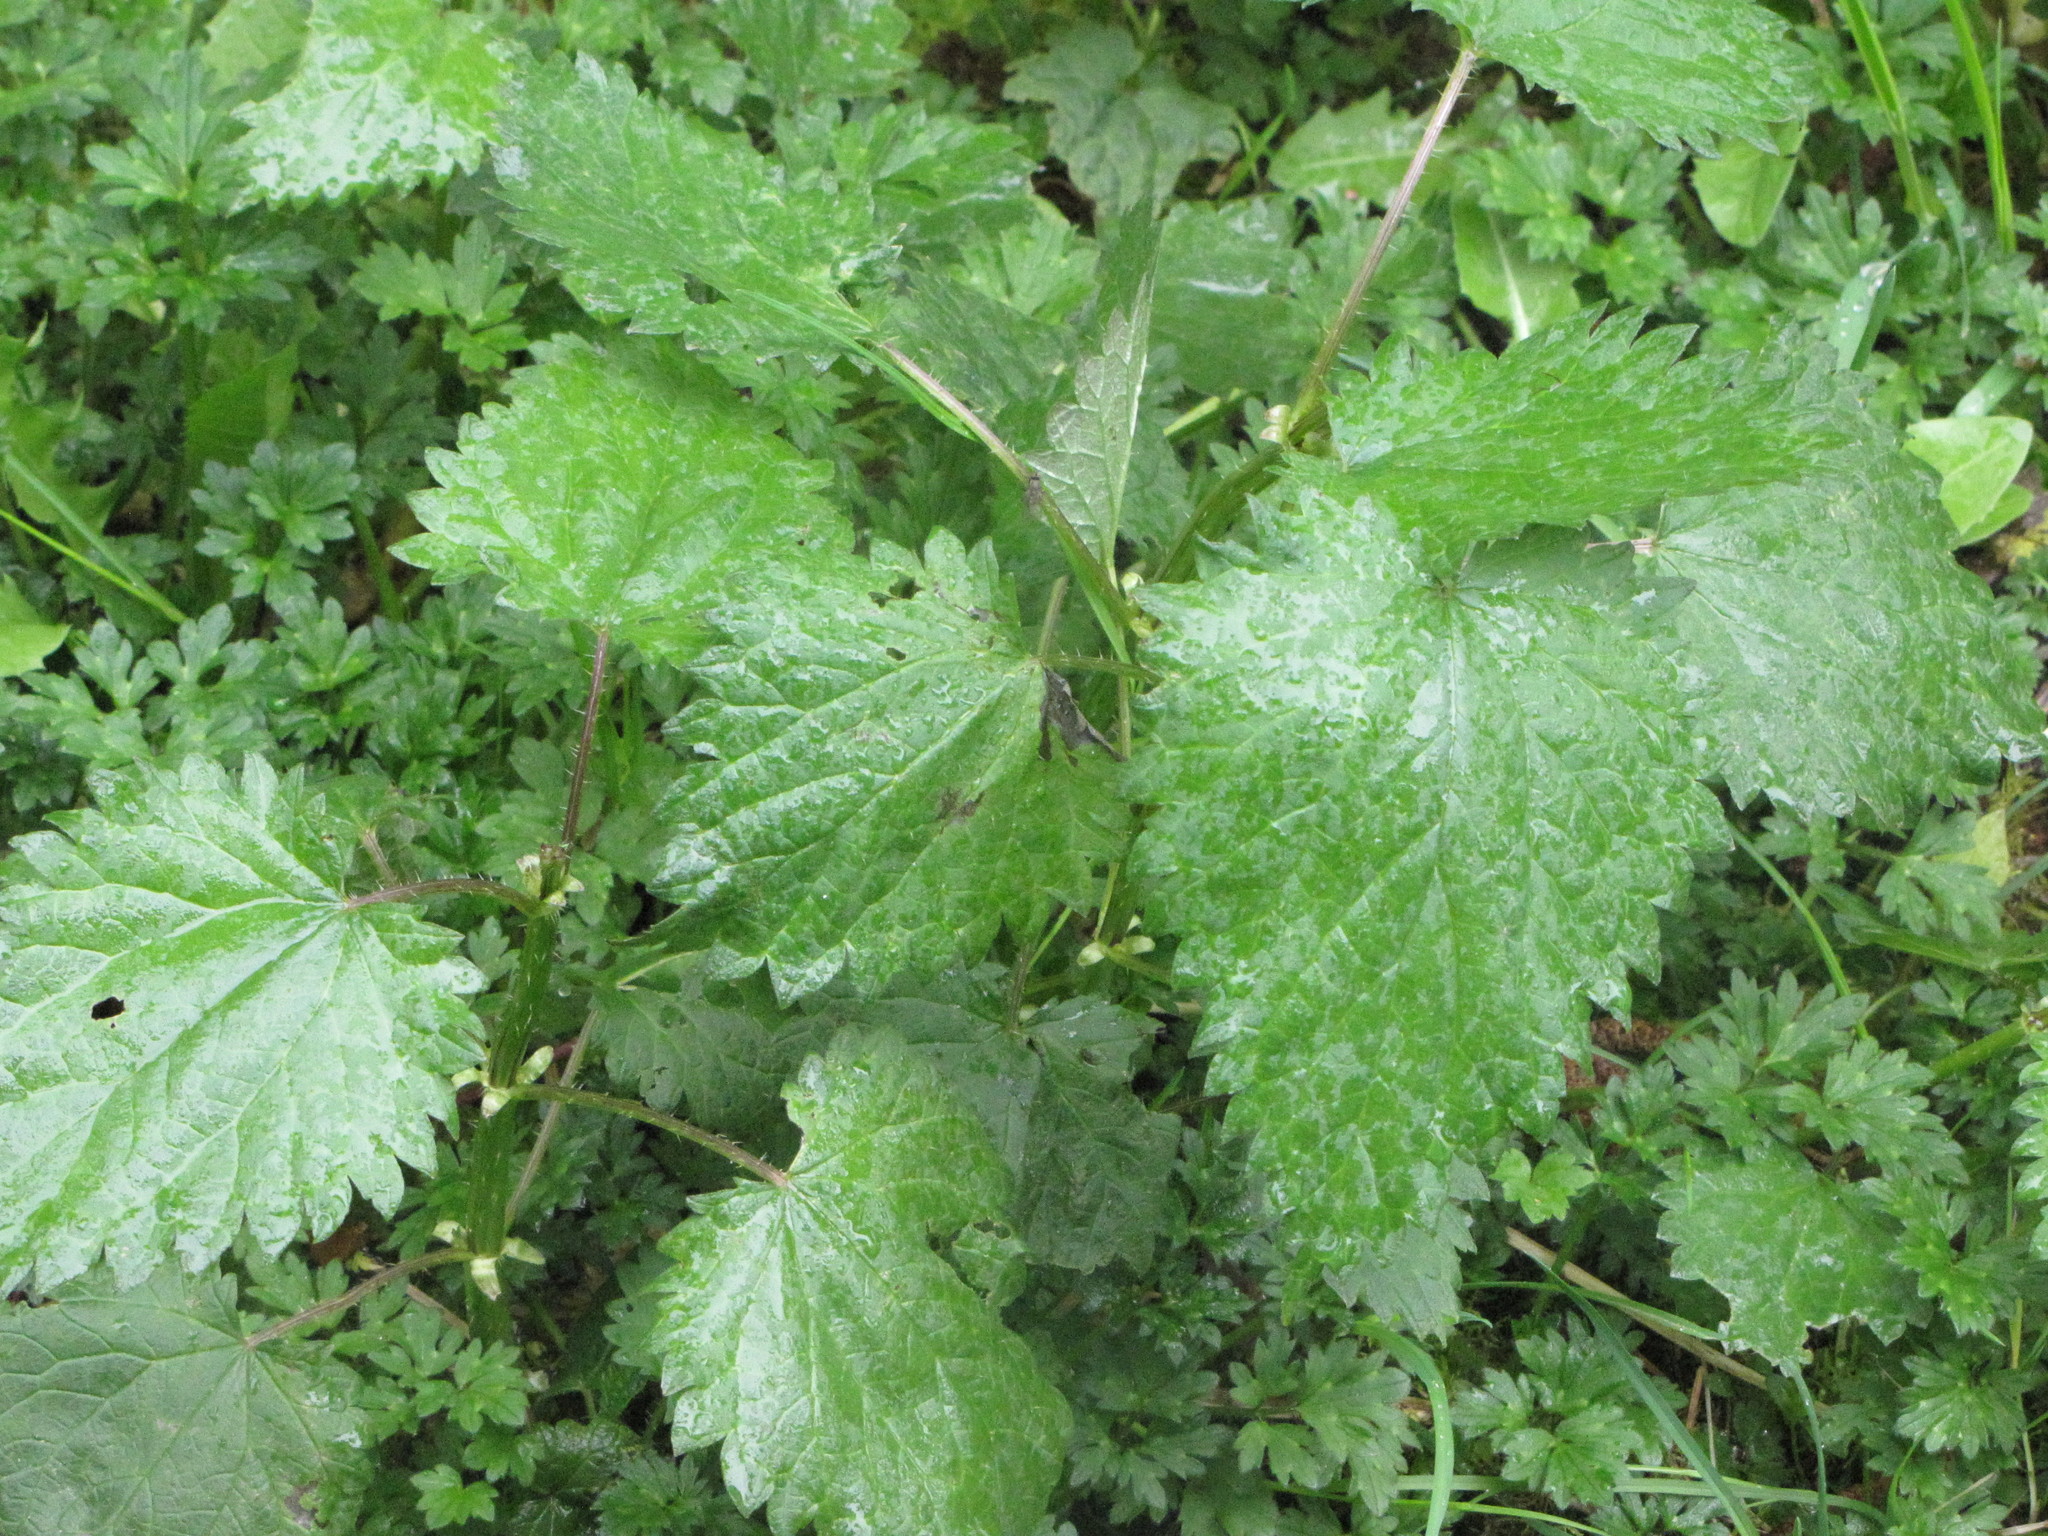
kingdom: Plantae
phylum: Tracheophyta
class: Magnoliopsida
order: Rosales
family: Urticaceae
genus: Urtica
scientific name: Urtica dioica
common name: Common nettle
